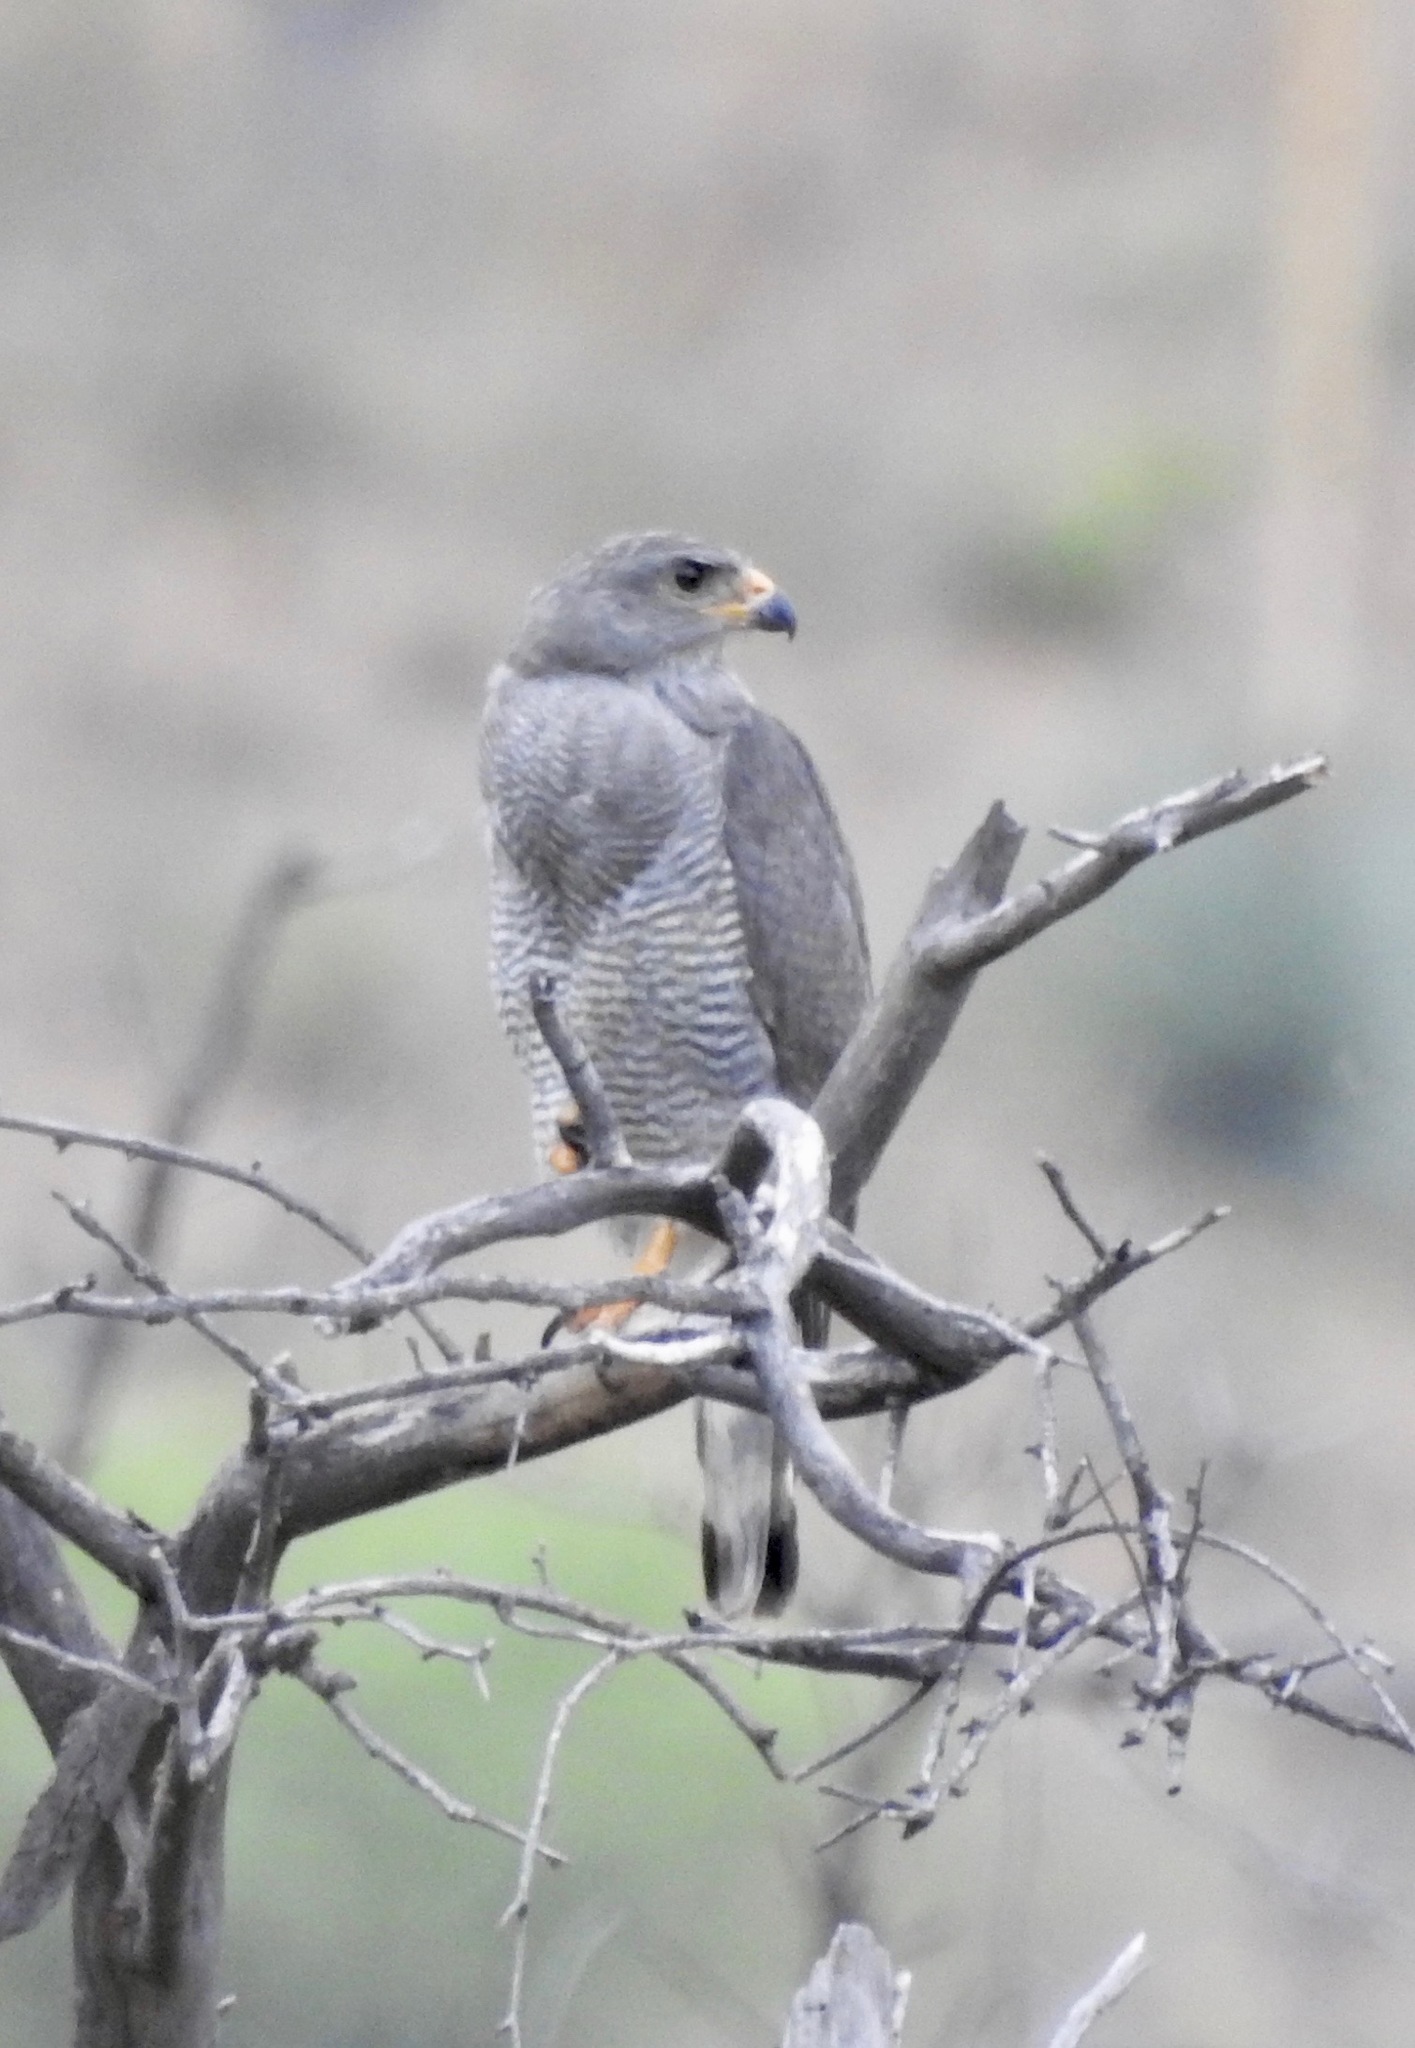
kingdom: Animalia
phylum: Chordata
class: Aves
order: Accipitriformes
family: Accipitridae
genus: Buteo
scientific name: Buteo nitidus
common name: Grey-lined hawk
